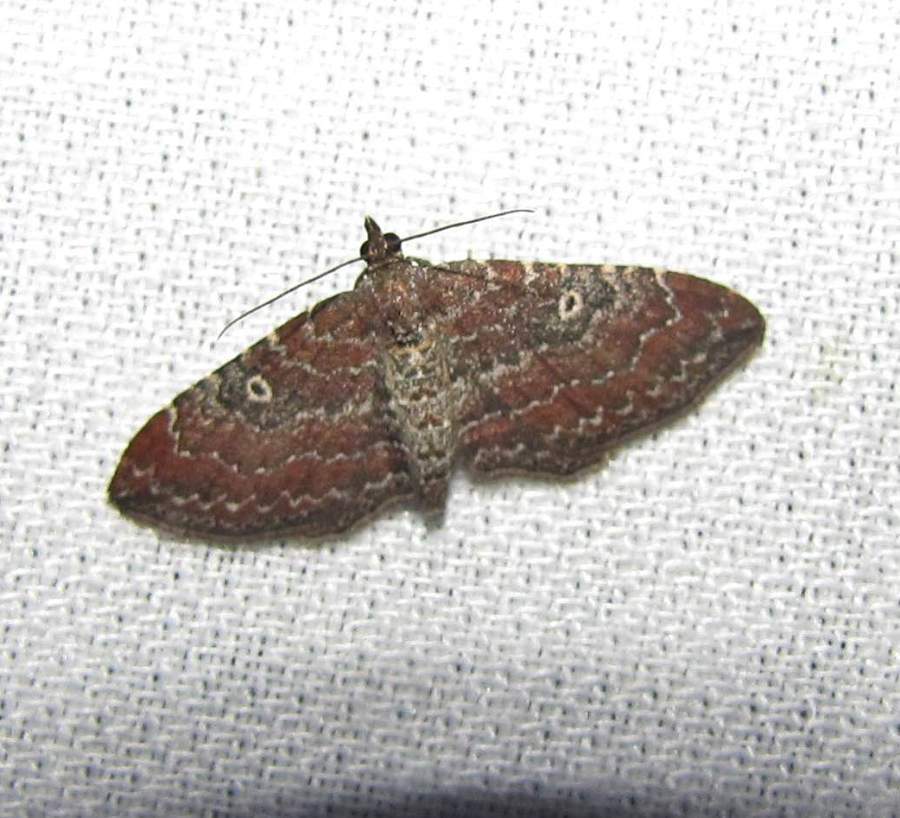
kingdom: Animalia
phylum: Arthropoda
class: Insecta
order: Lepidoptera
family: Geometridae
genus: Orthonama
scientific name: Orthonama obstipata
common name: The gem
